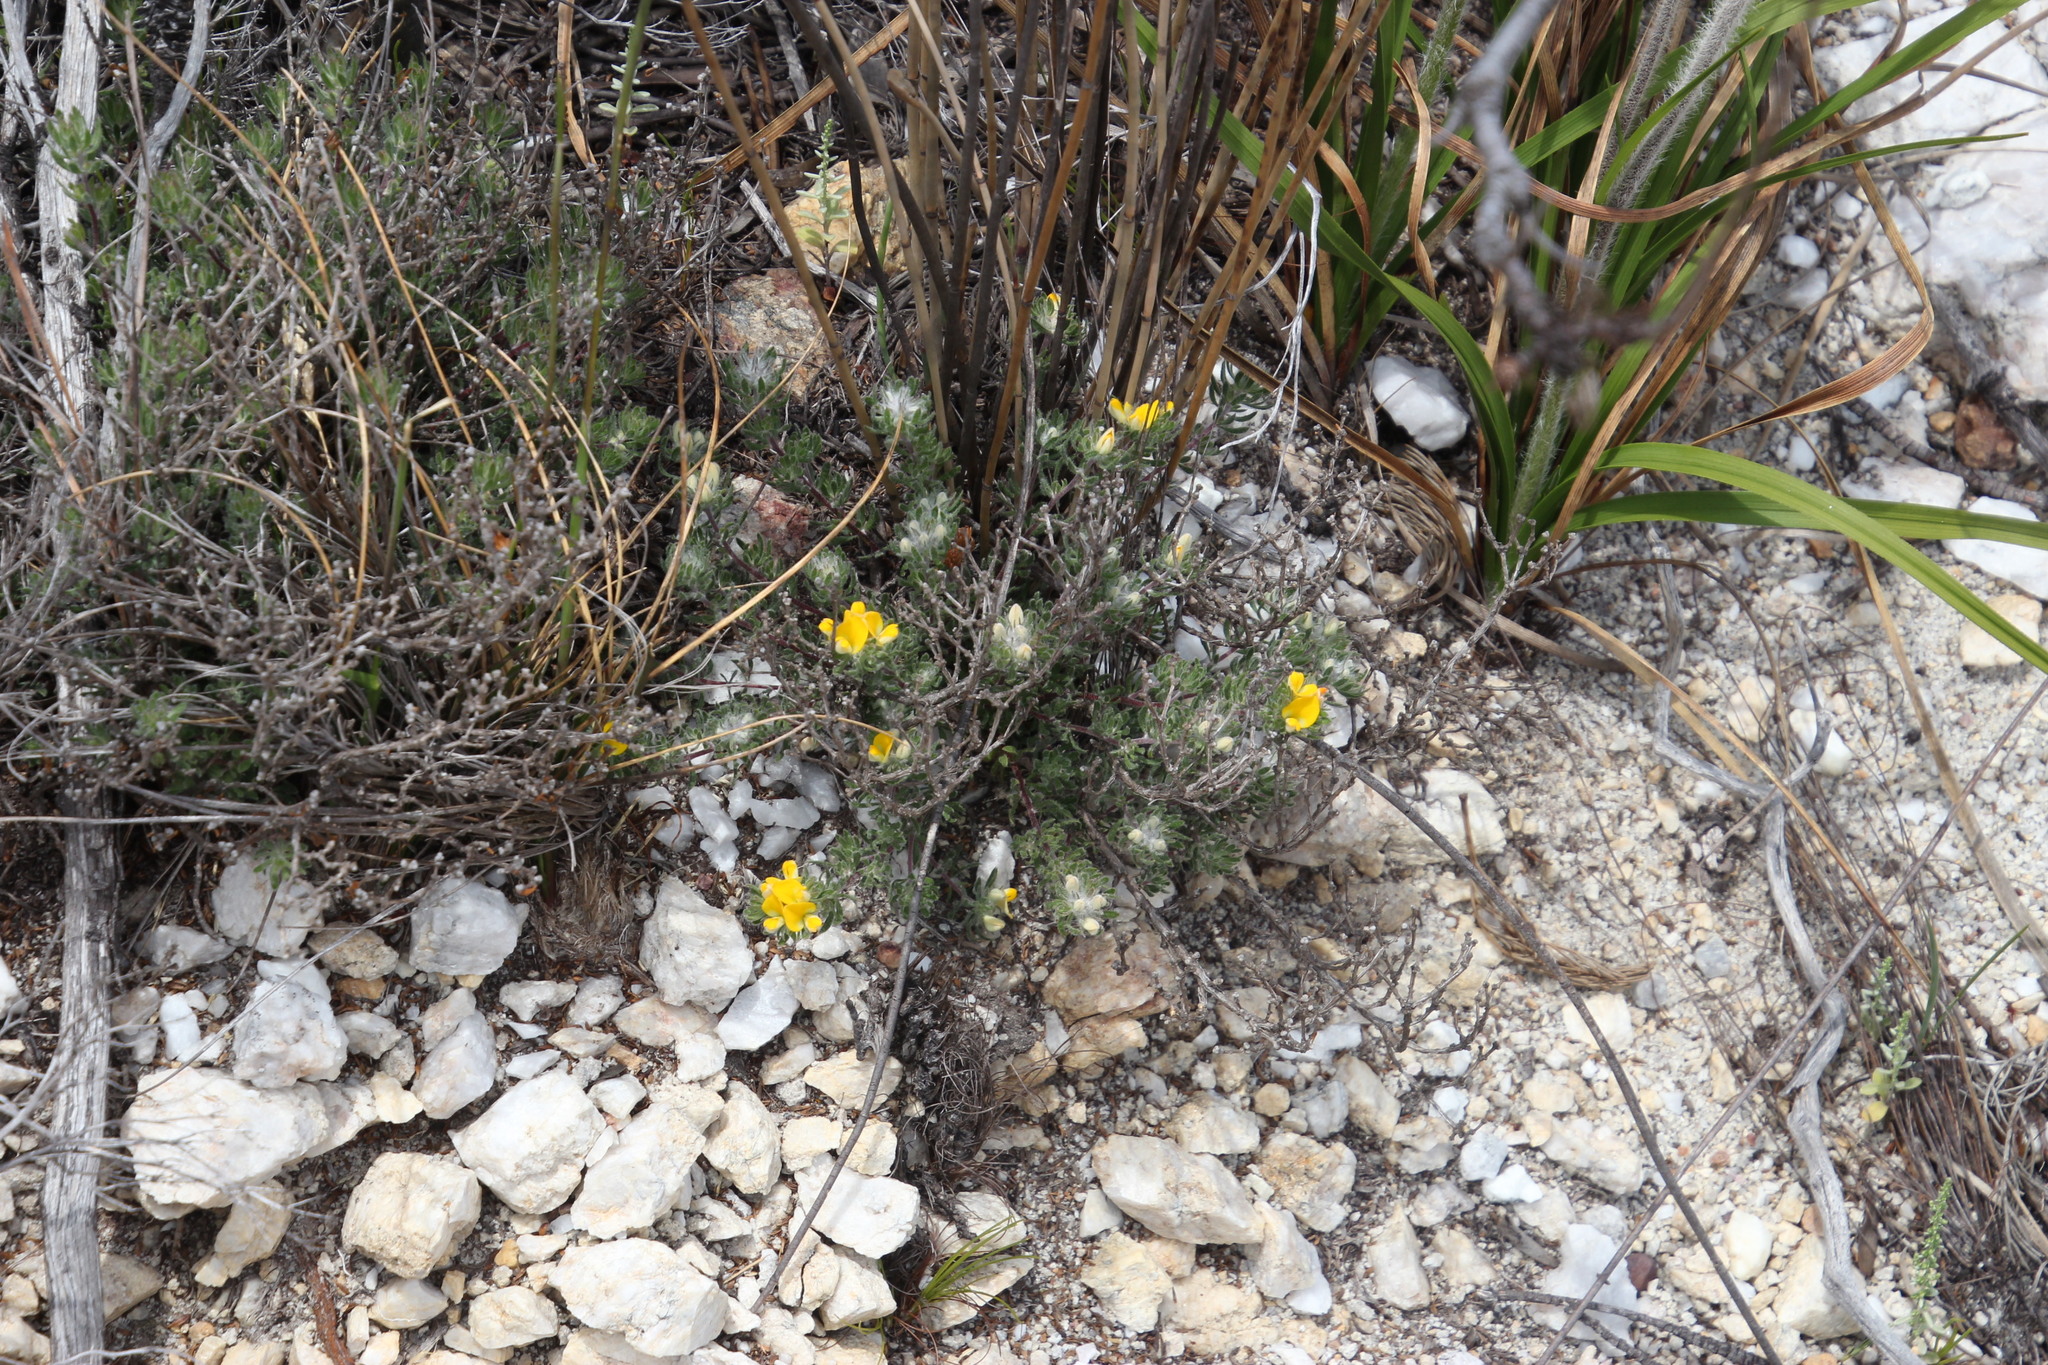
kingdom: Plantae
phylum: Tracheophyta
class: Magnoliopsida
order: Fabales
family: Fabaceae
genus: Aspalathus
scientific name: Aspalathus stenophylla
